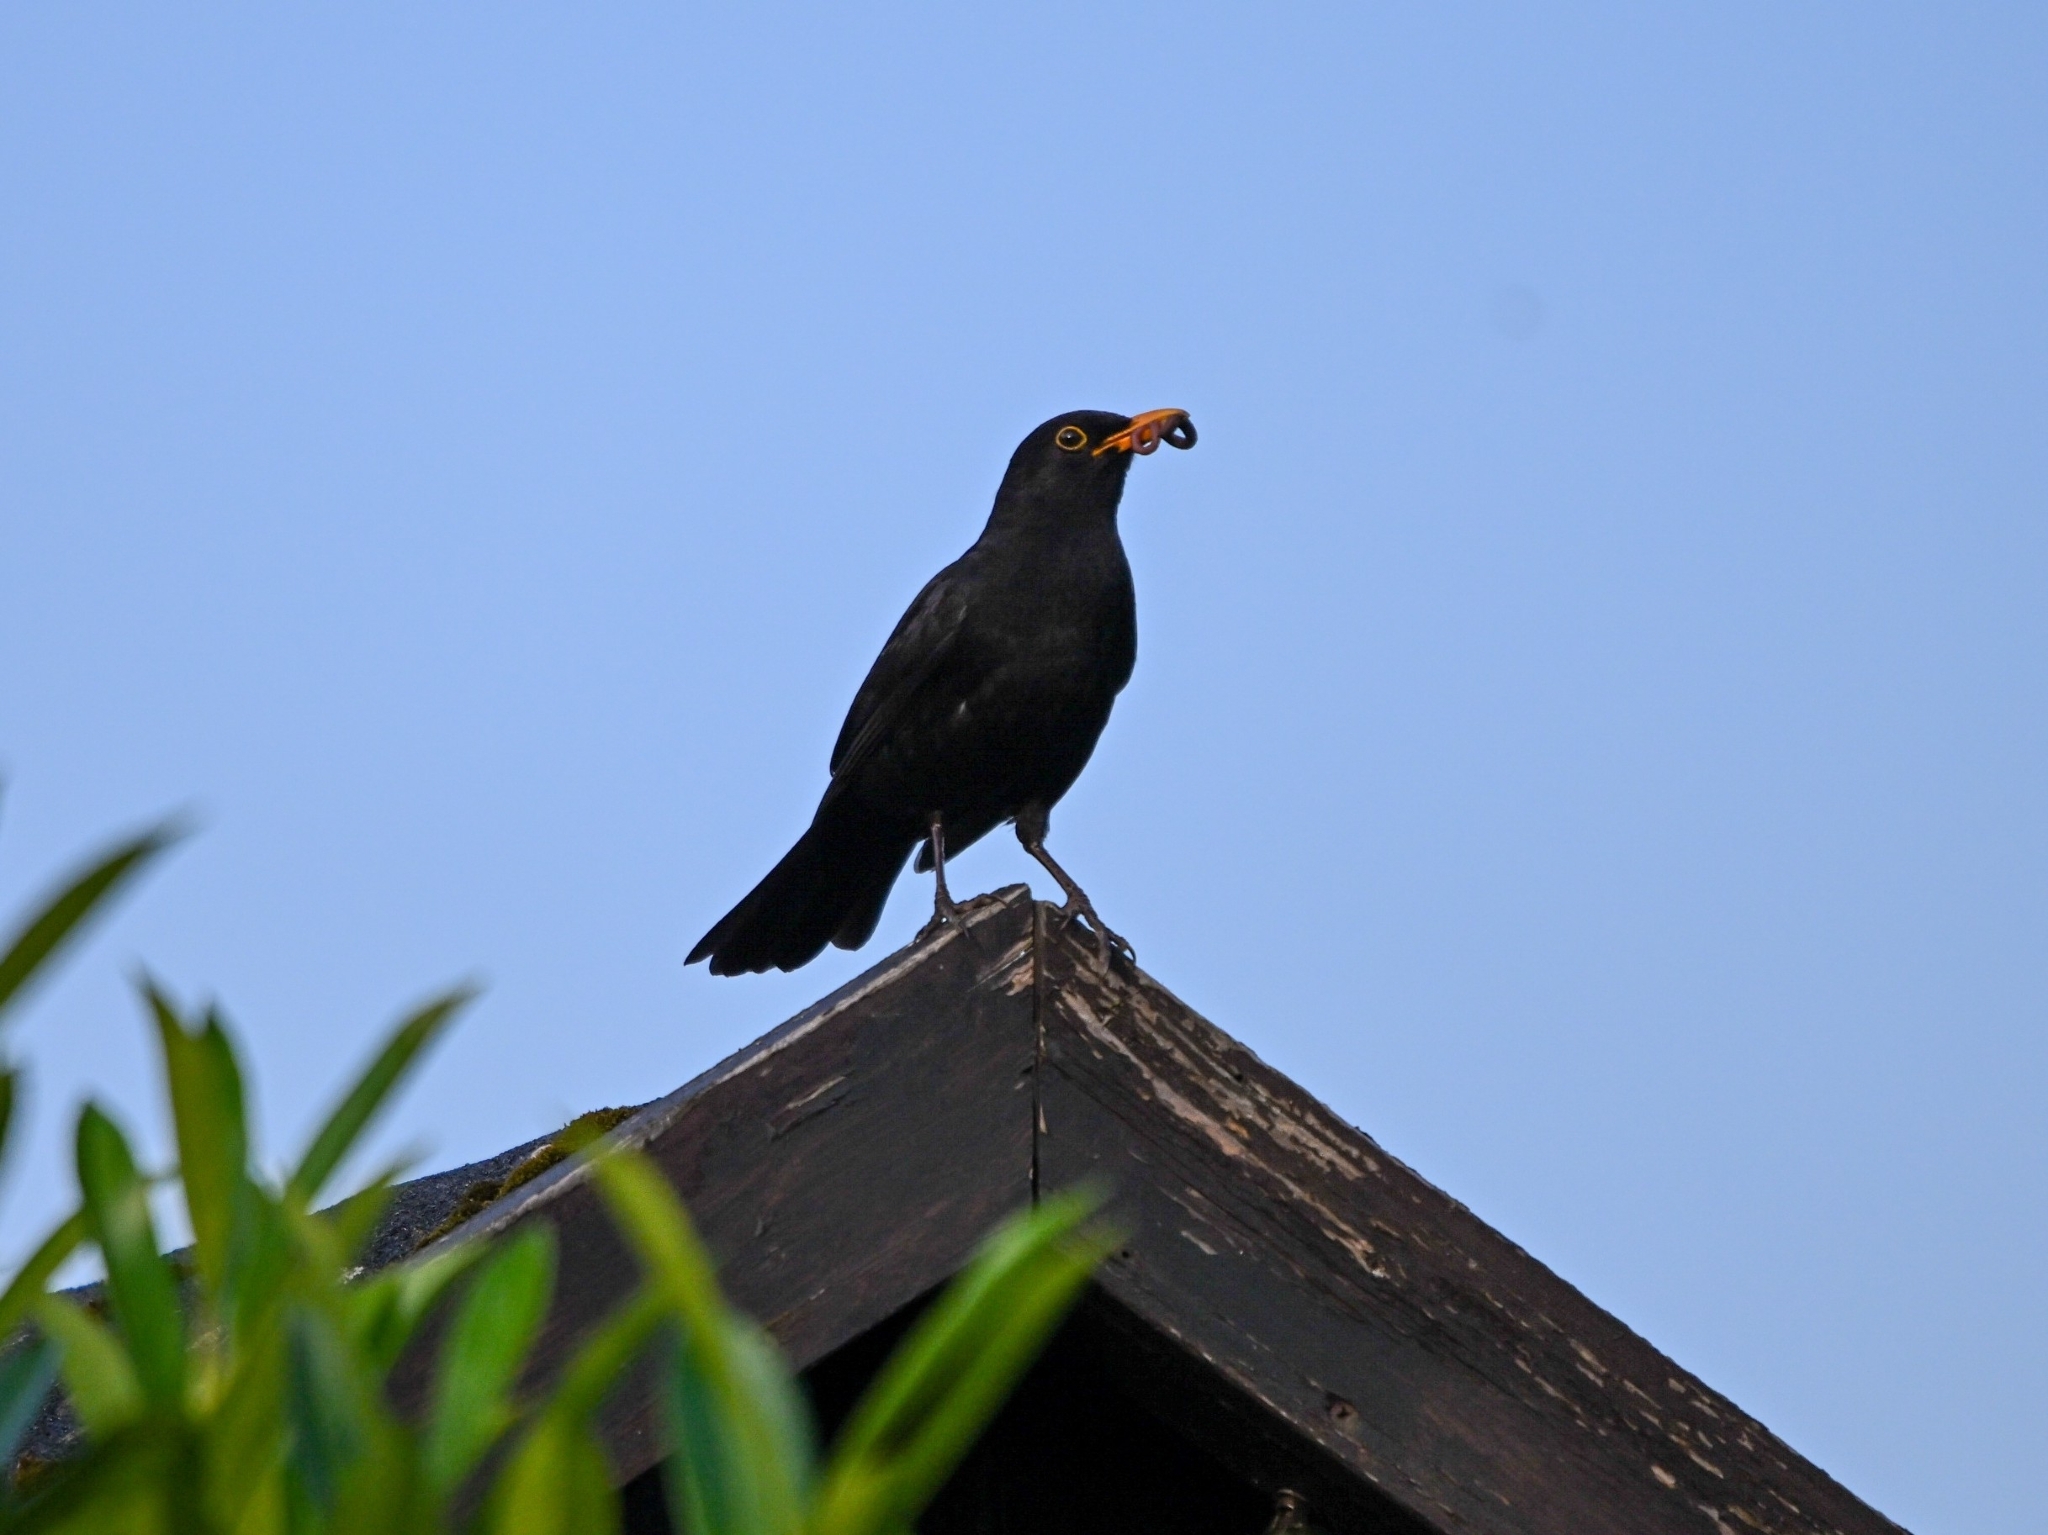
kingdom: Animalia
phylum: Chordata
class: Aves
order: Passeriformes
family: Turdidae
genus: Turdus
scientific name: Turdus merula
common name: Common blackbird
